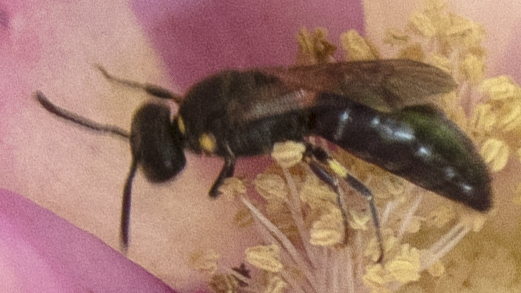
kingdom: Animalia
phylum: Arthropoda
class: Insecta
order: Hymenoptera
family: Colletidae
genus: Hylaeus
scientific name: Hylaeus modestus
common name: Yellow-faced bee
